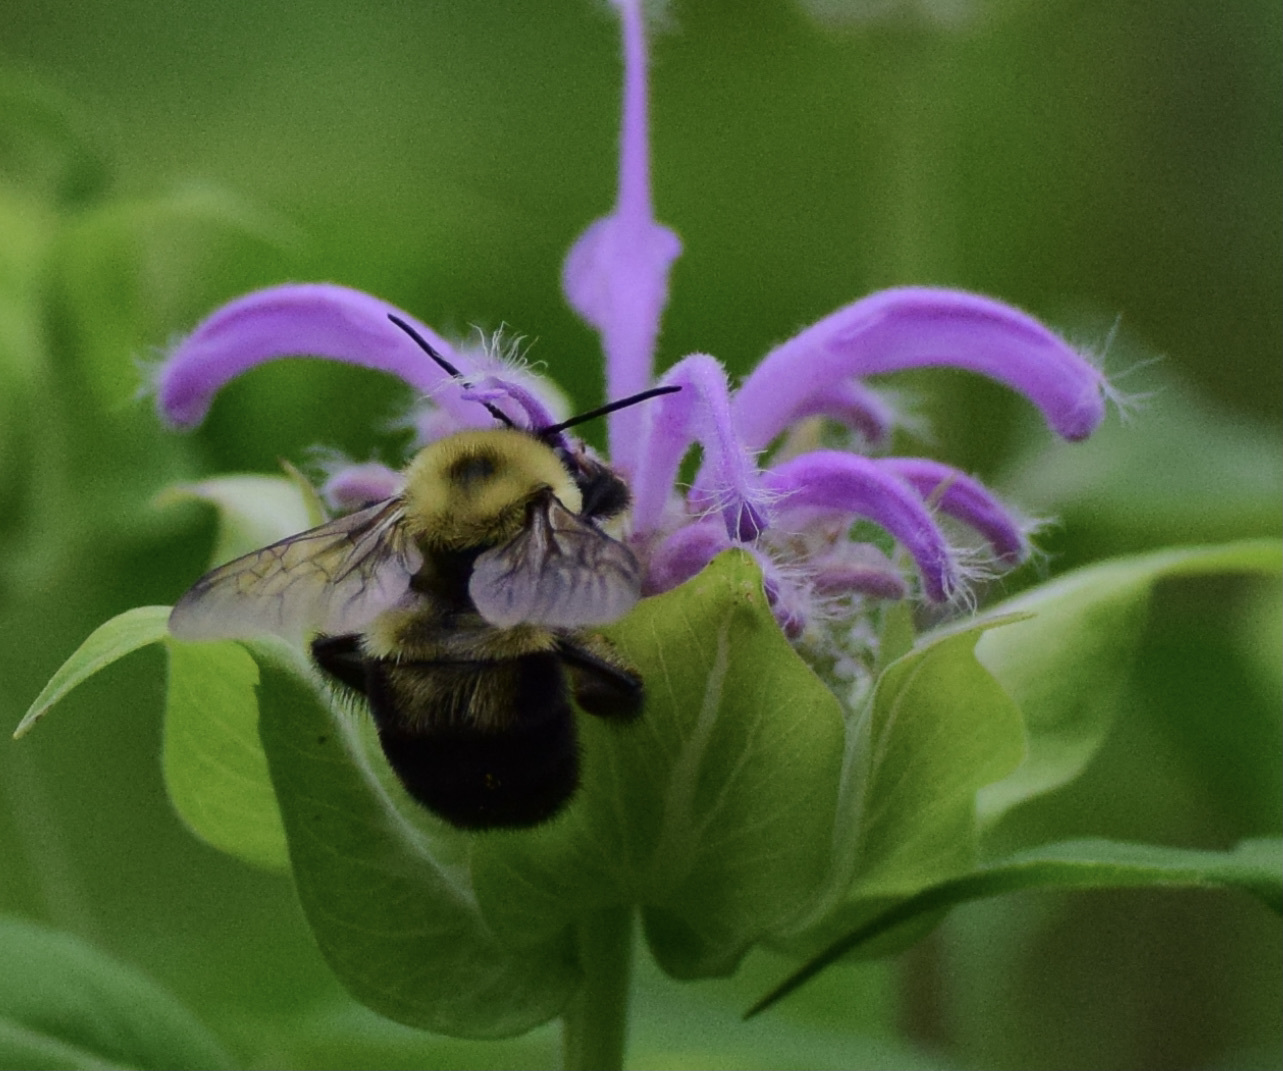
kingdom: Animalia
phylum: Arthropoda
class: Insecta
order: Hymenoptera
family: Apidae
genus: Bombus
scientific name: Bombus bimaculatus
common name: Two-spotted bumble bee
